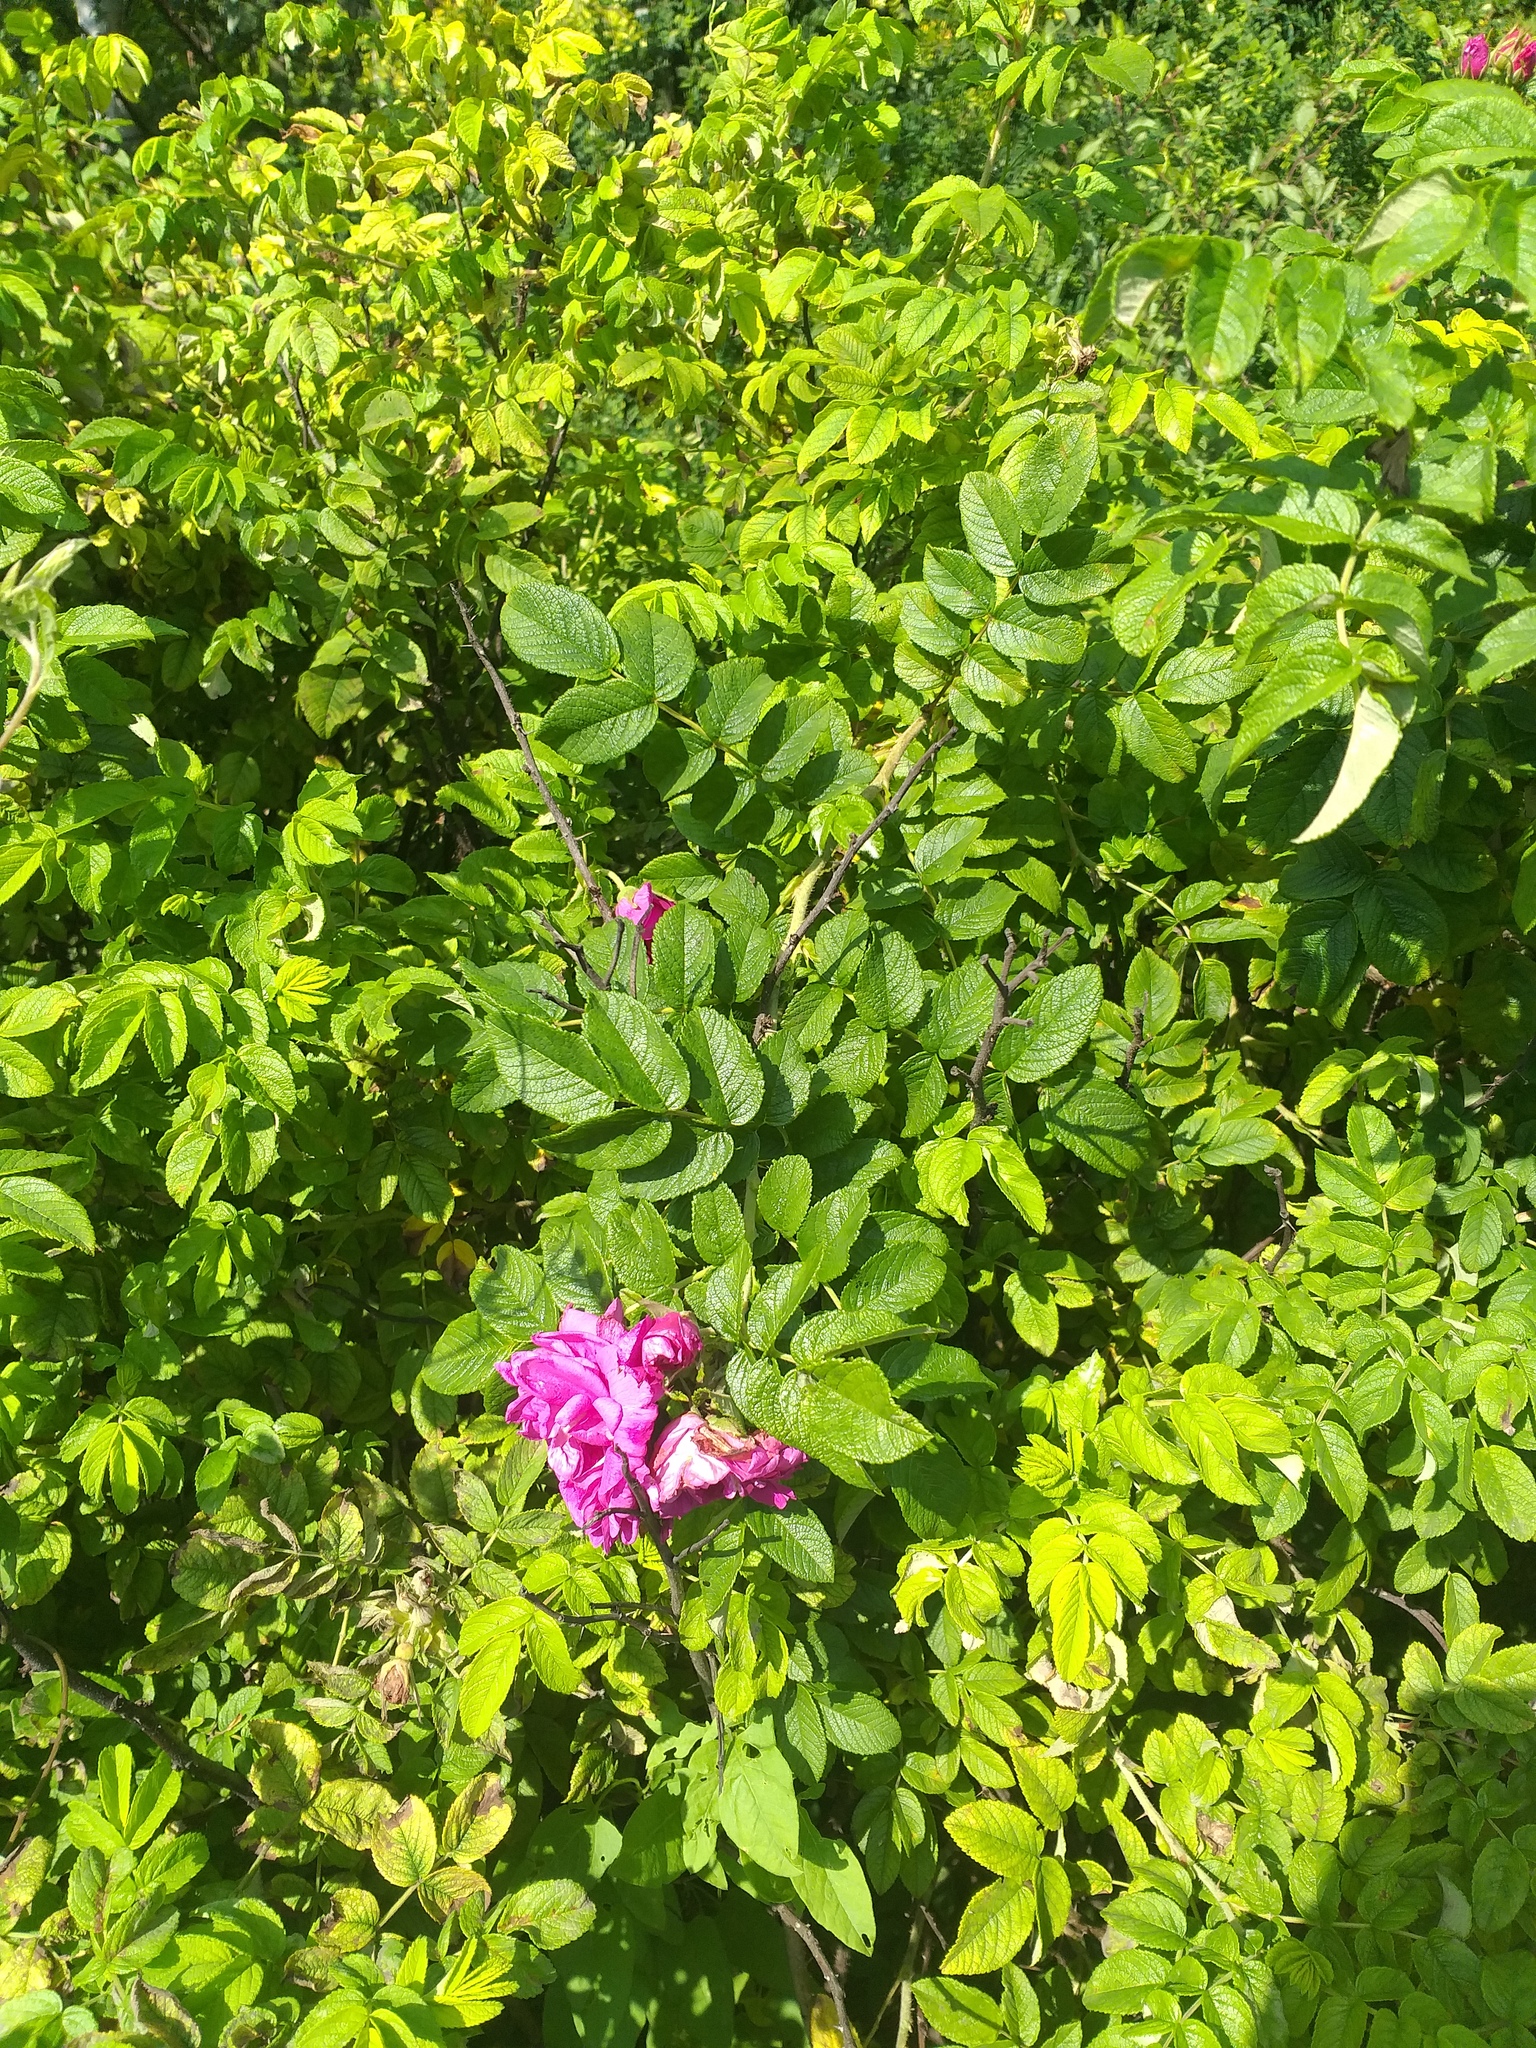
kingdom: Plantae
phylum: Tracheophyta
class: Magnoliopsida
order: Rosales
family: Rosaceae
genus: Rosa
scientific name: Rosa rugosa
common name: Japanese rose
